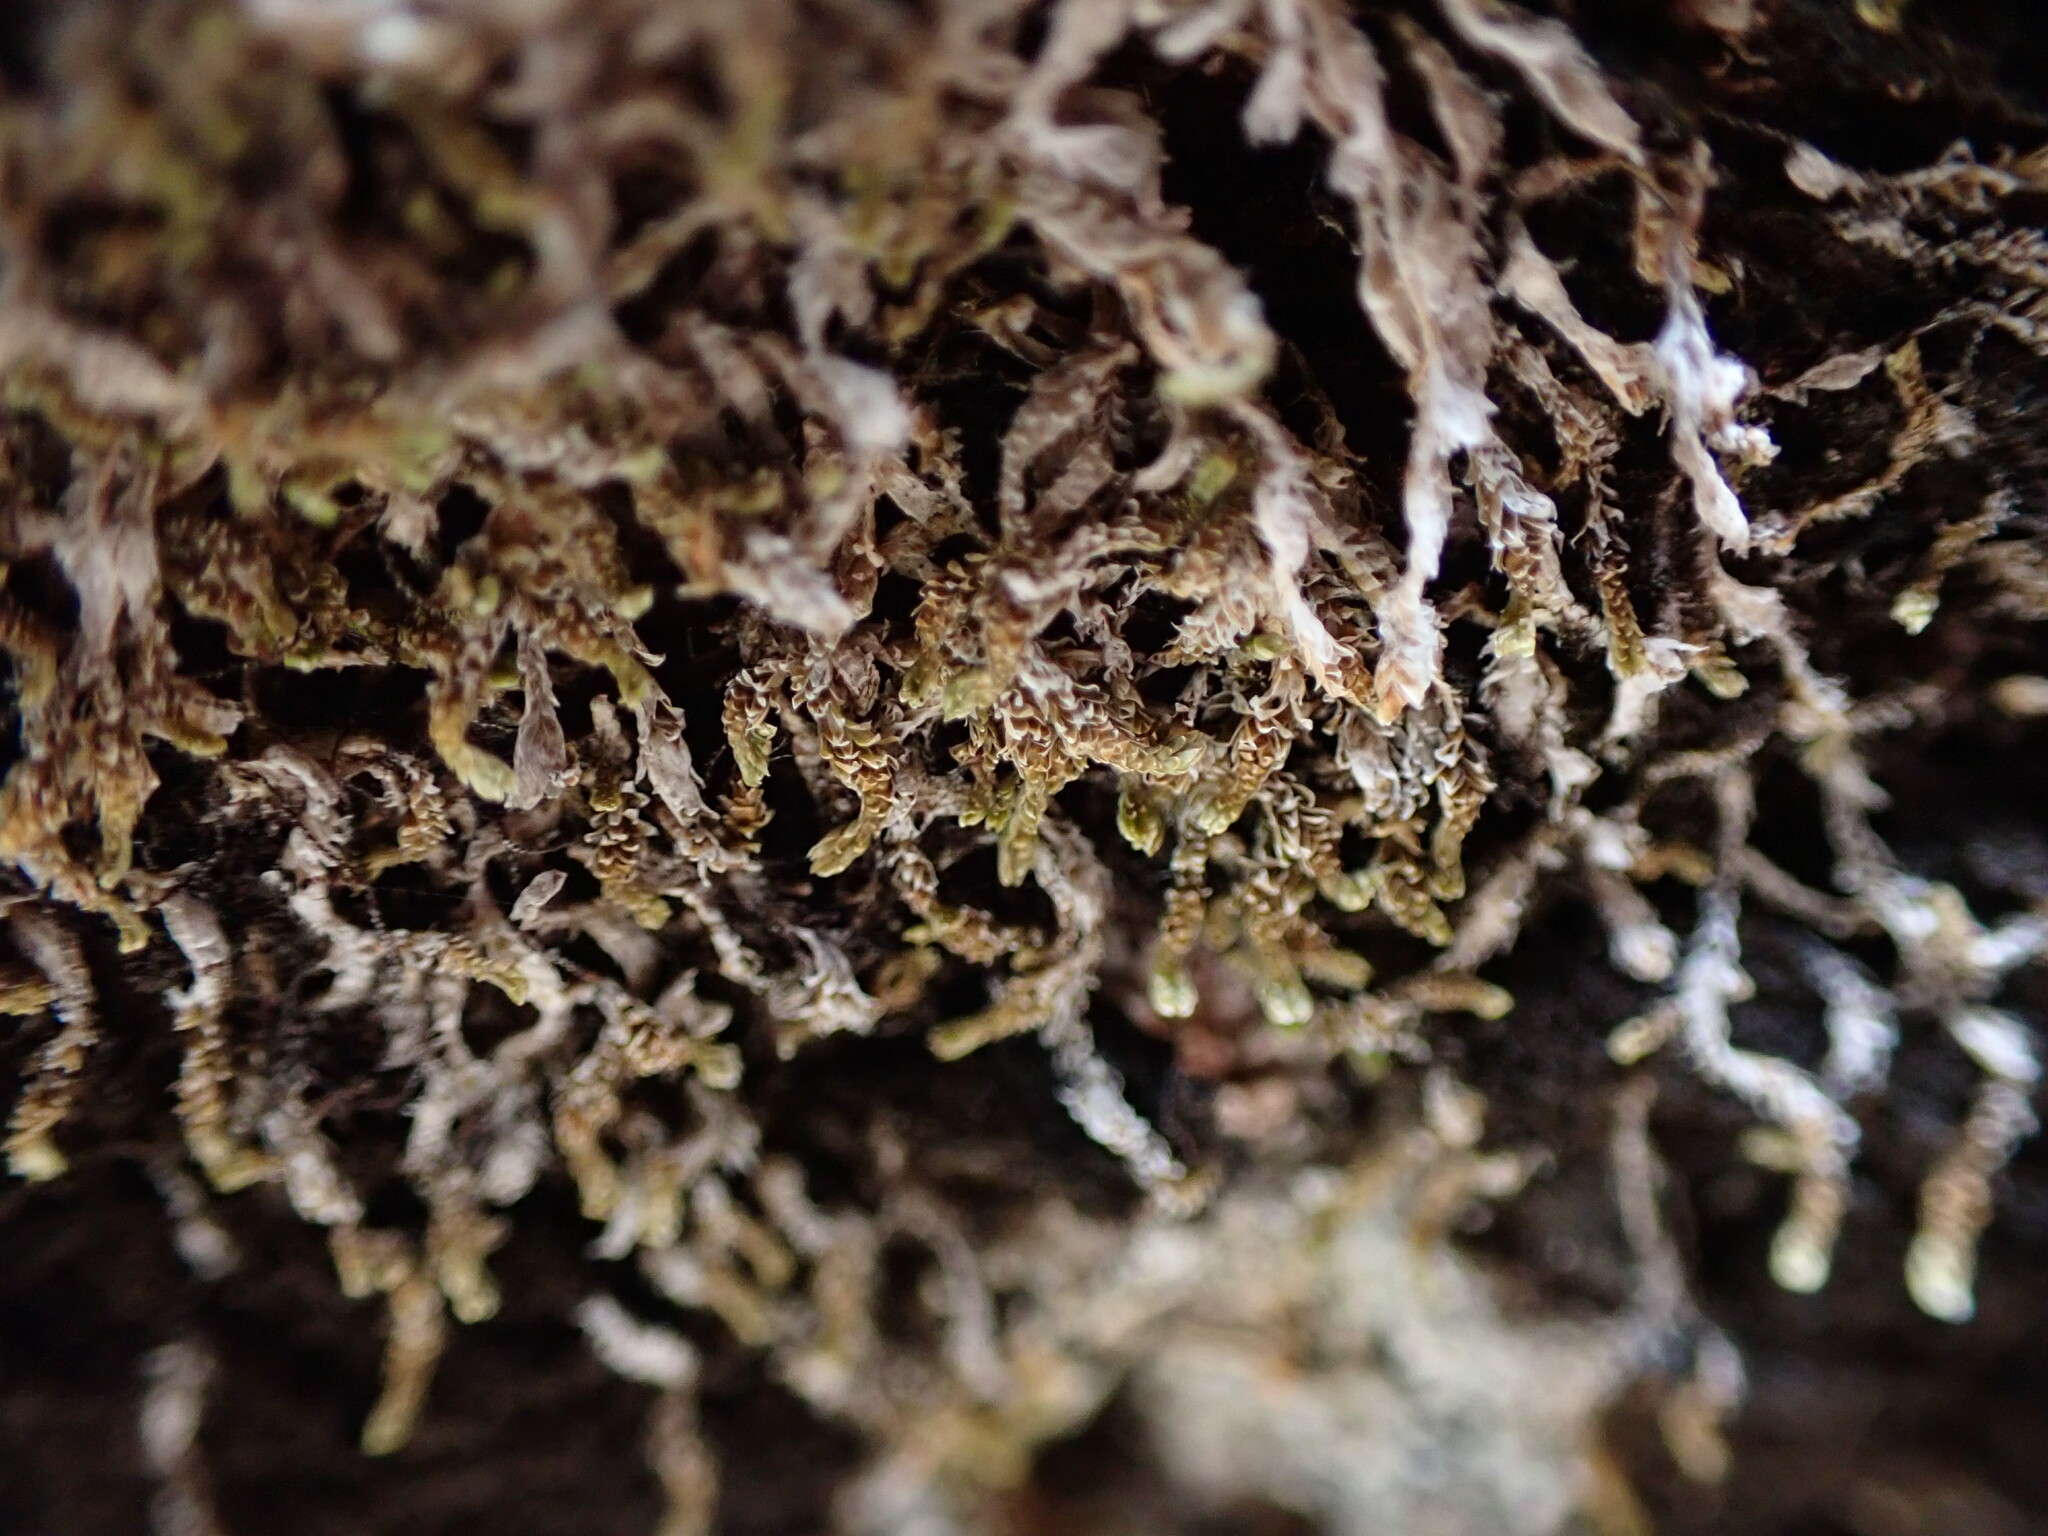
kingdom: Plantae
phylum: Marchantiophyta
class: Jungermanniopsida
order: Jungermanniales
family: Gymnomitriaceae
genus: Gymnomitrion
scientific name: Gymnomitrion concinnatum
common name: Braided frostwort
